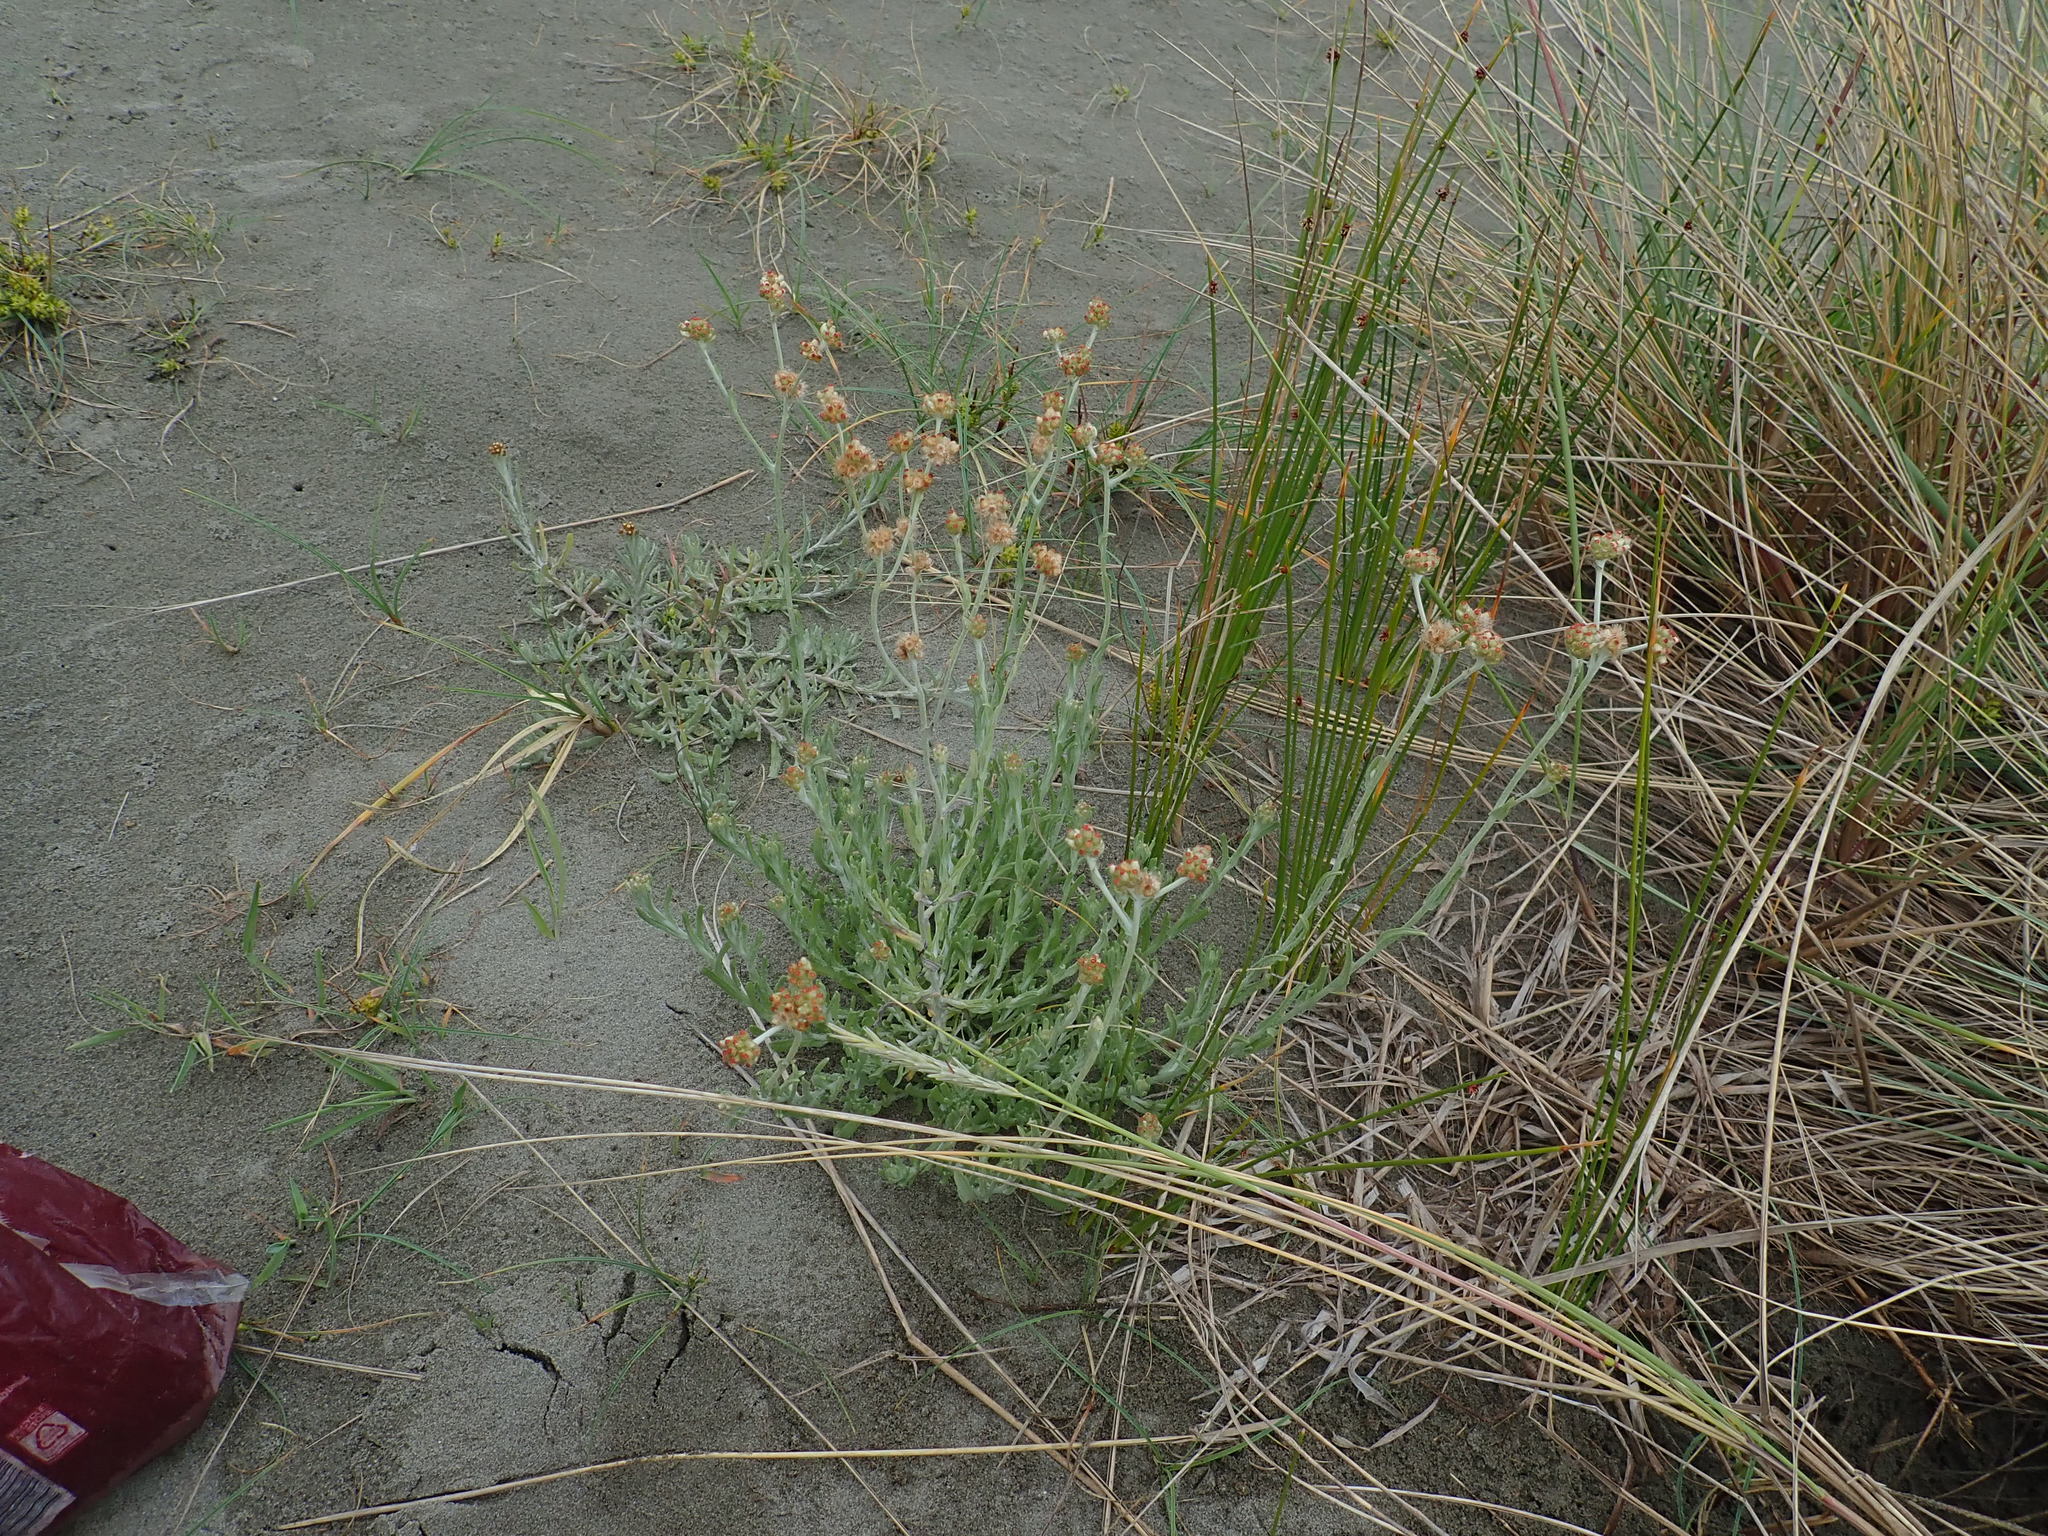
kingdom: Plantae
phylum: Tracheophyta
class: Magnoliopsida
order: Asterales
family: Asteraceae
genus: Helichrysum
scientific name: Helichrysum luteoalbum
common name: Daisy
